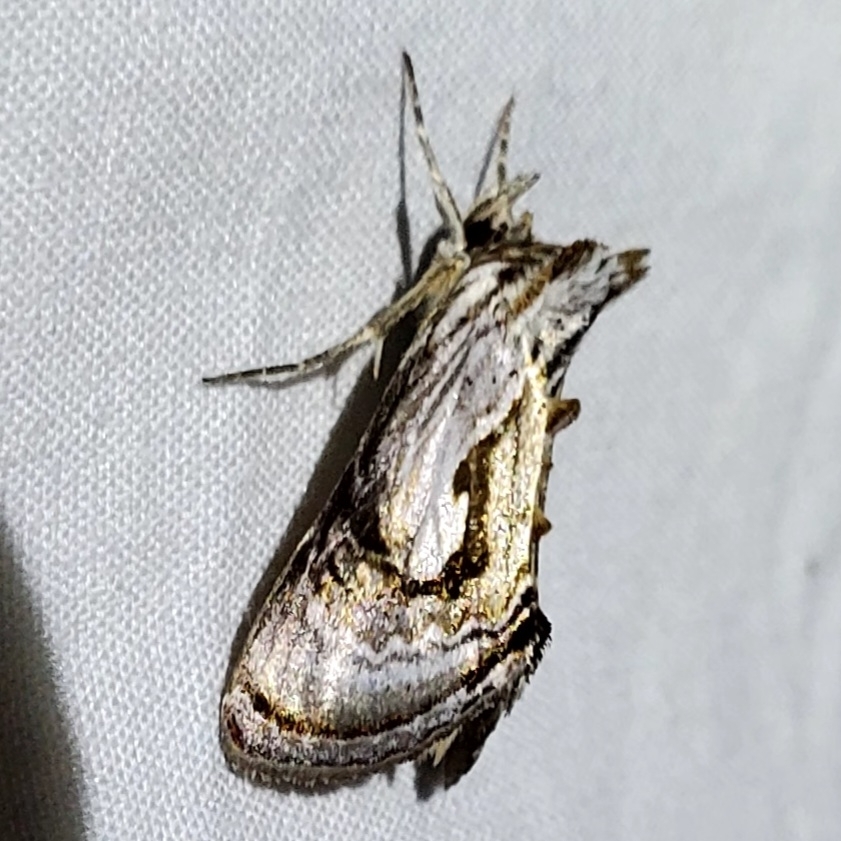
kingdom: Animalia
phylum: Arthropoda
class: Insecta
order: Lepidoptera
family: Noctuidae
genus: Chrysanympha
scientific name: Chrysanympha formosa
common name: Formosa looper moth
